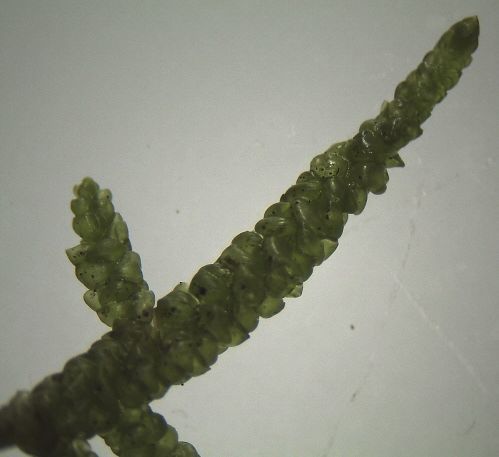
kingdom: Plantae
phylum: Bryophyta
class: Bryopsida
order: Hypnales
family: Lembophyllaceae
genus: Lembophyllum
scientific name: Lembophyllum divulsum
